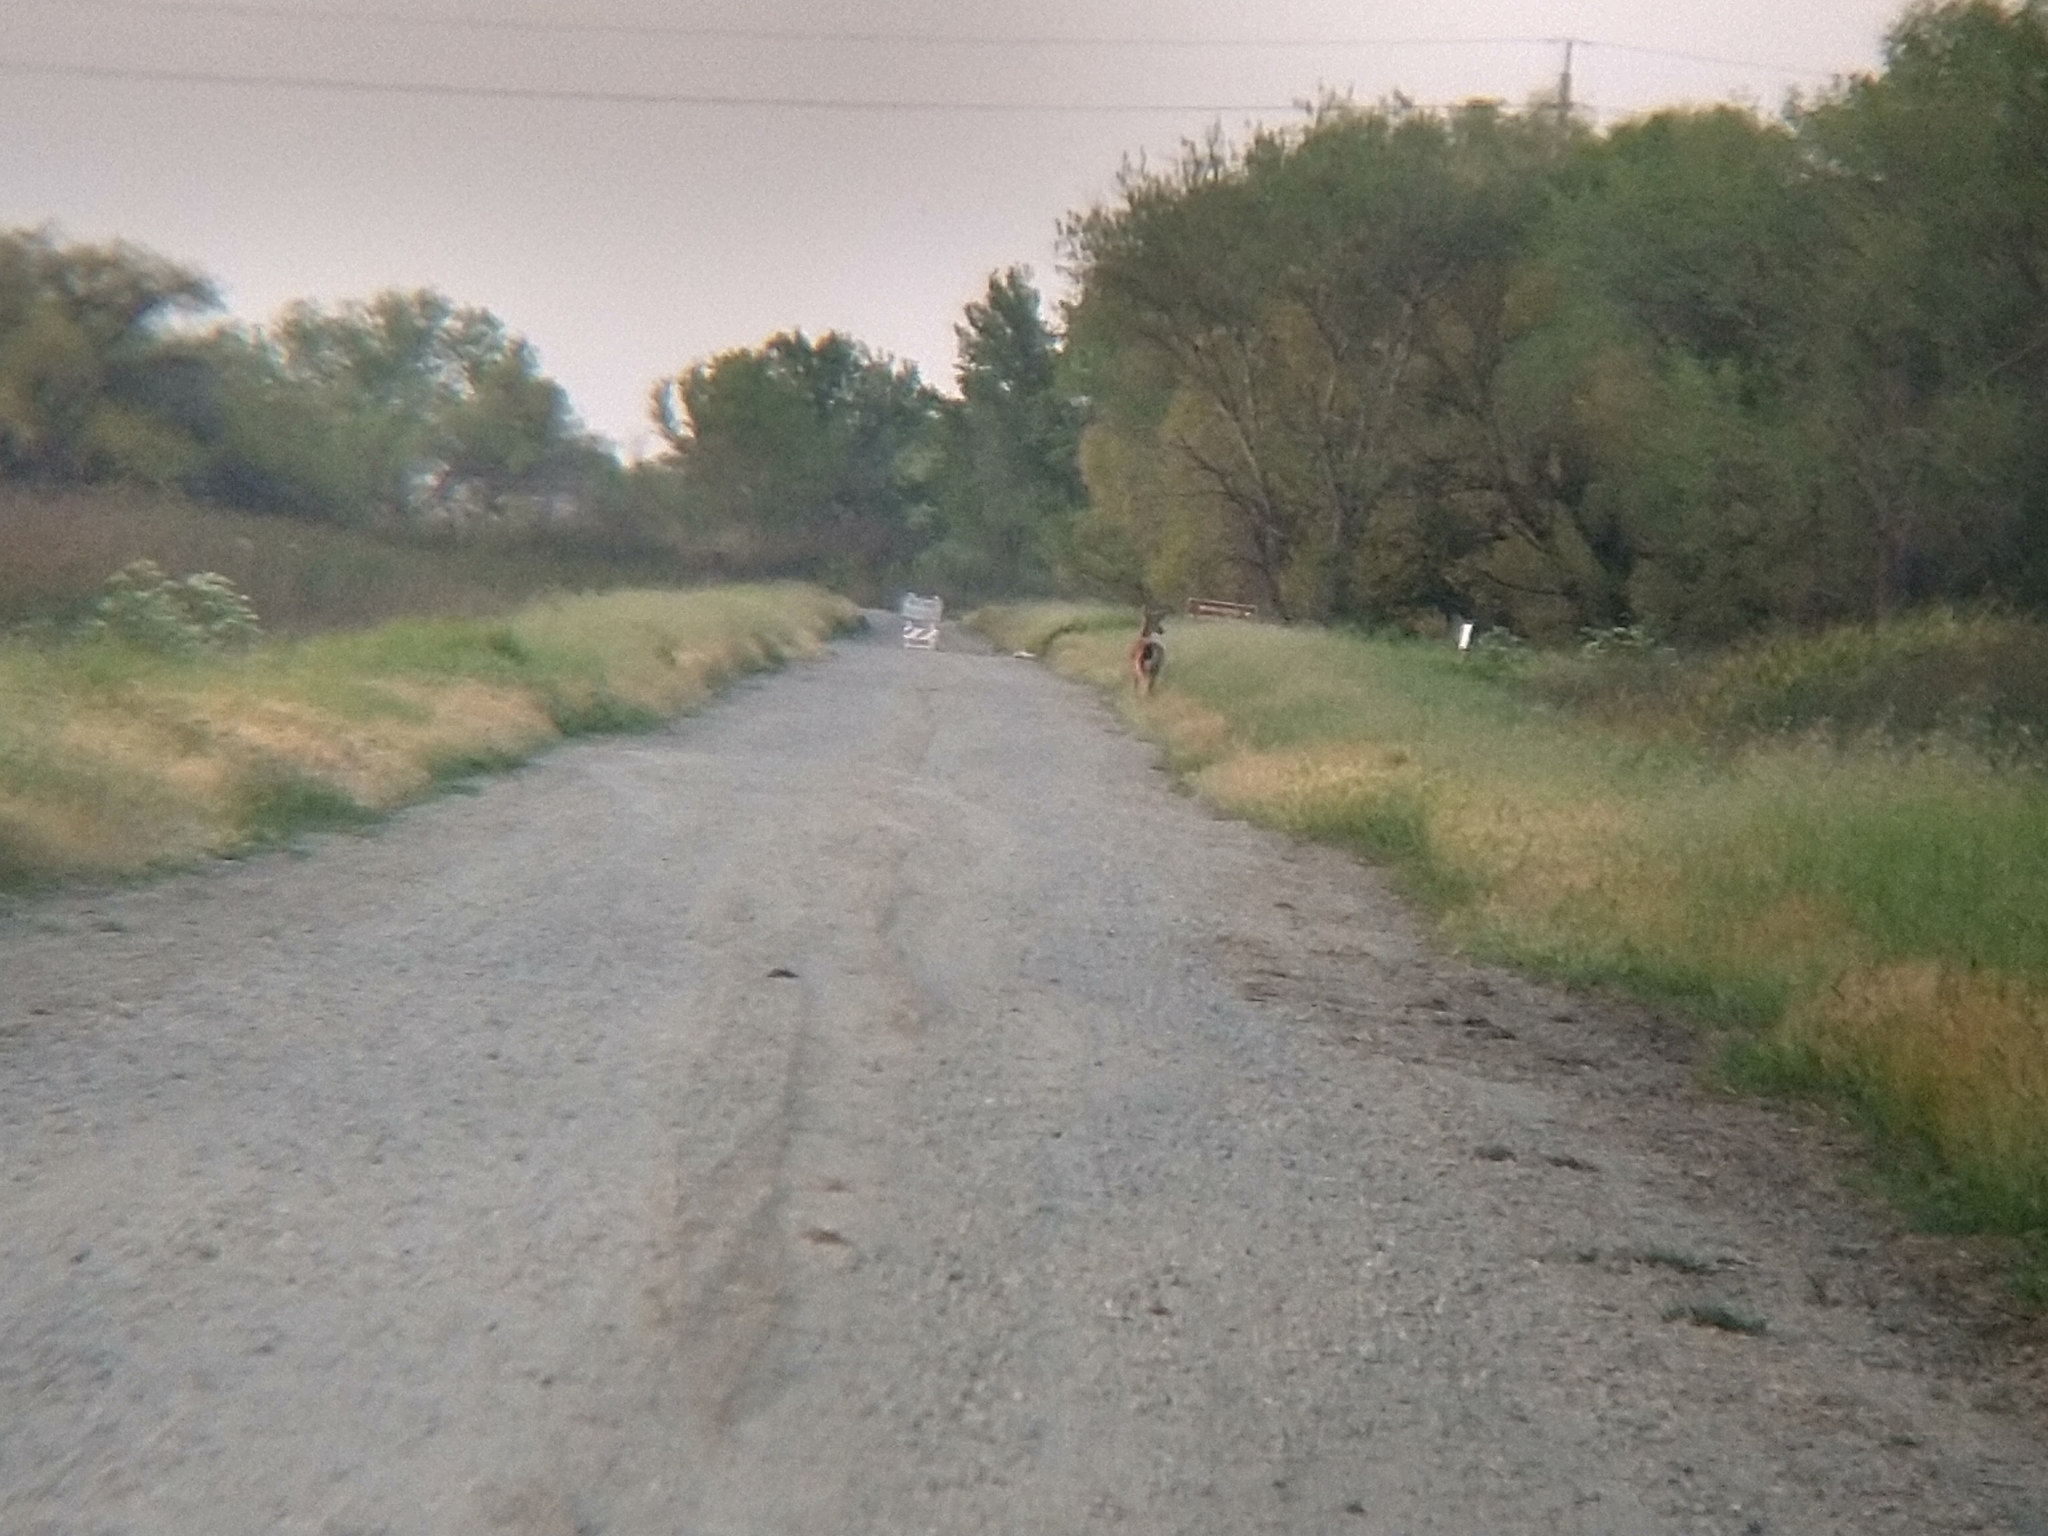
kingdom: Animalia
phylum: Chordata
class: Mammalia
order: Artiodactyla
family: Cervidae
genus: Odocoileus
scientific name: Odocoileus hemionus
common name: Mule deer
